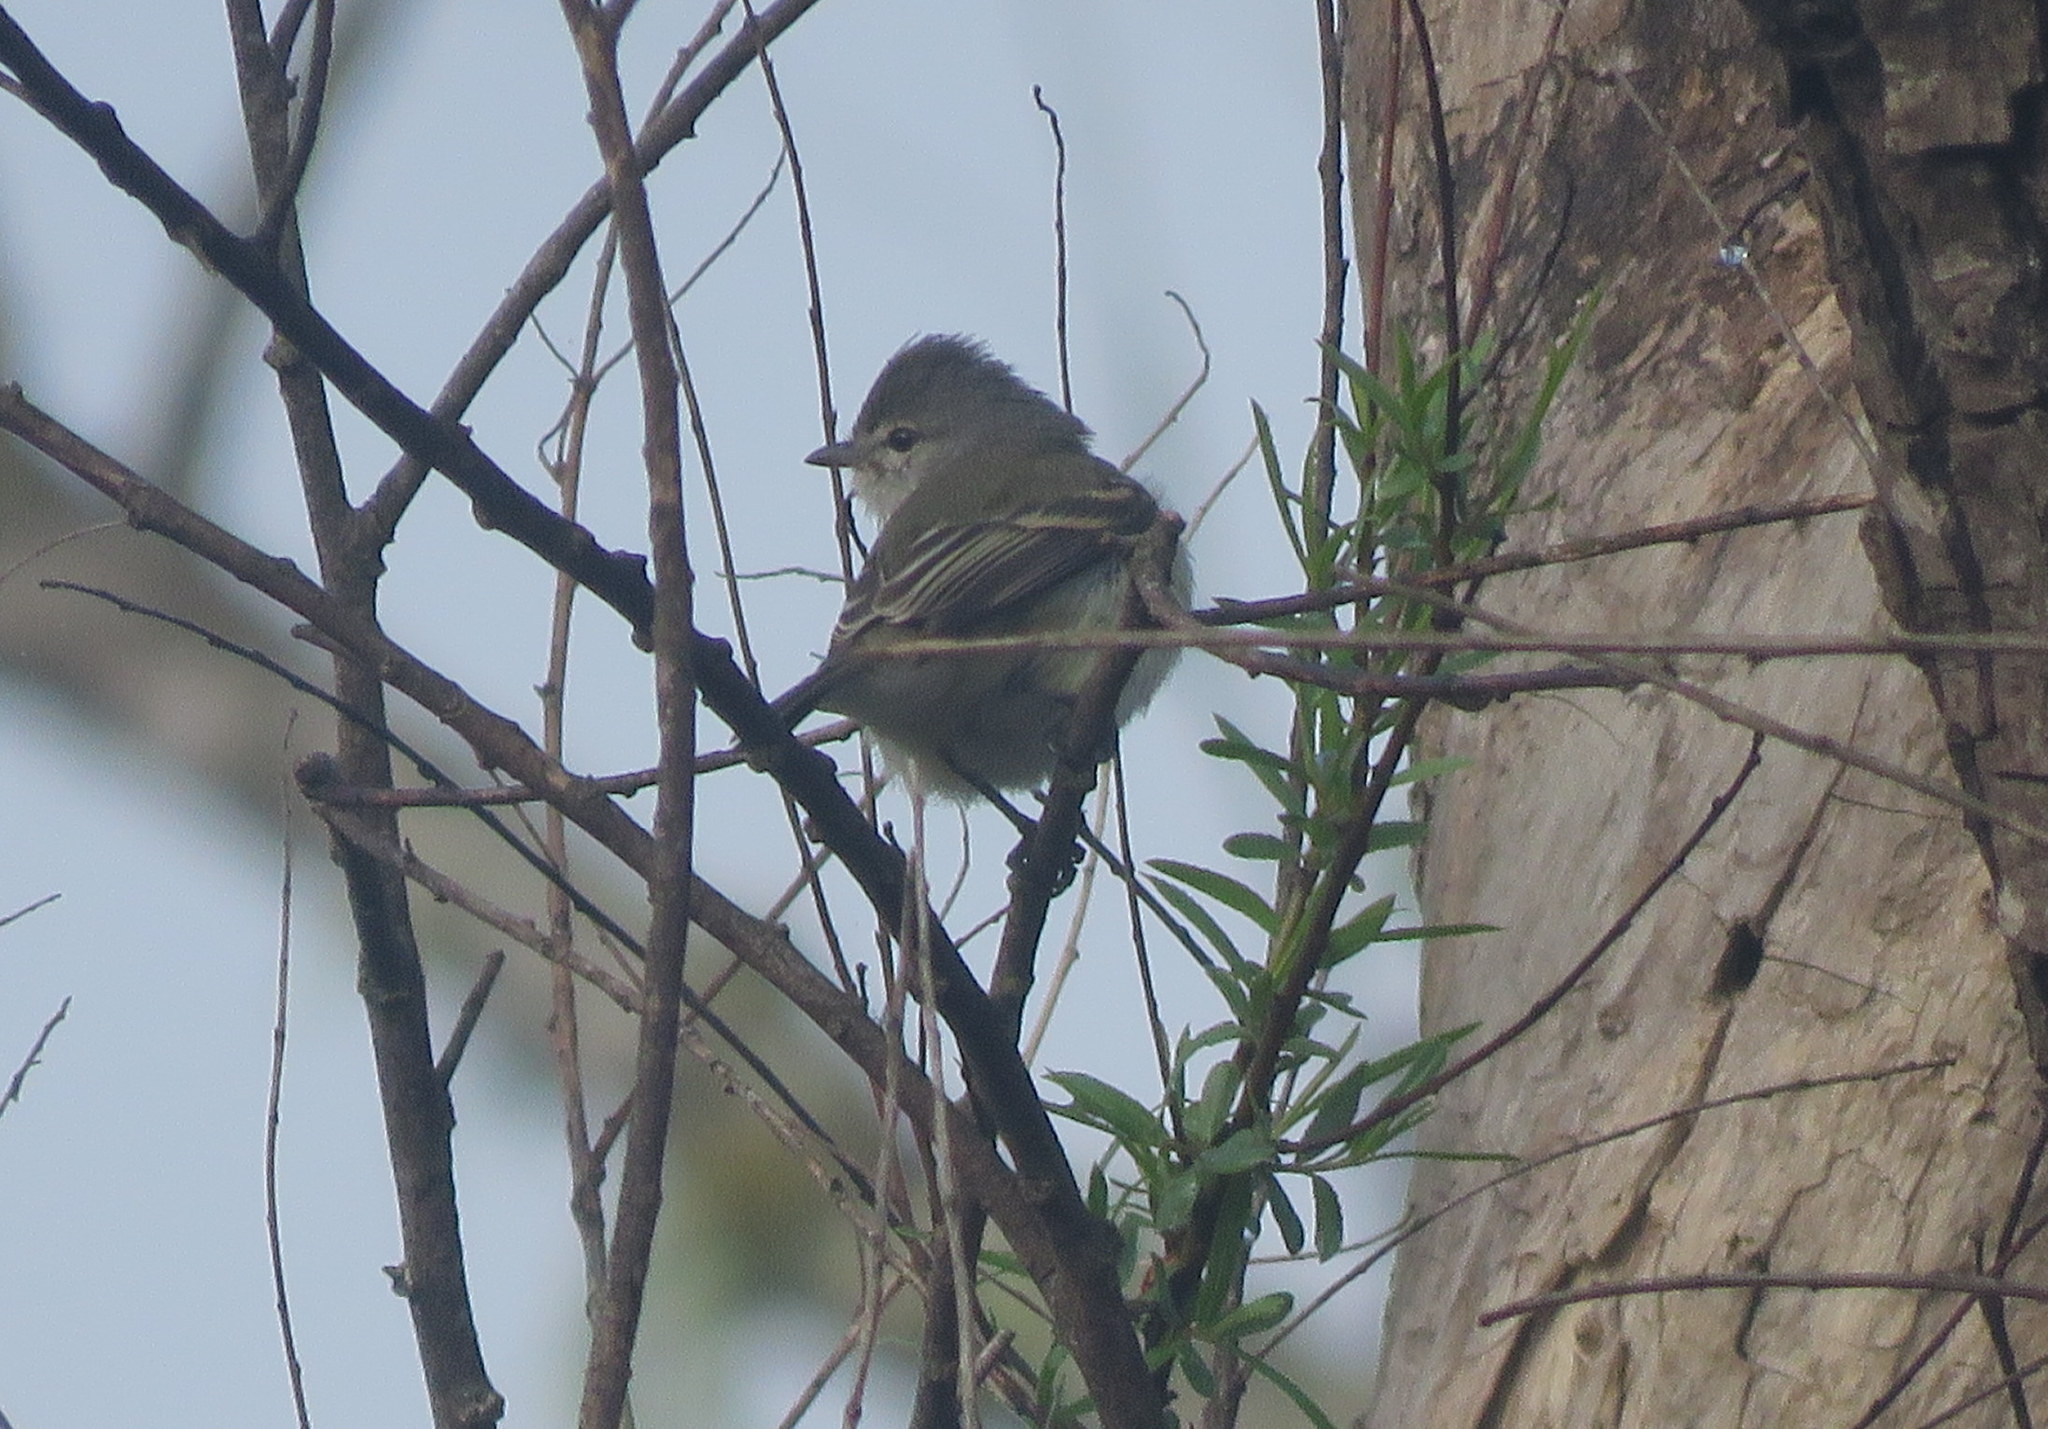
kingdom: Animalia
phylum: Chordata
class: Aves
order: Passeriformes
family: Tyrannidae
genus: Camptostoma
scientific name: Camptostoma obsoletum
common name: Southern beardless-tyrannulet
